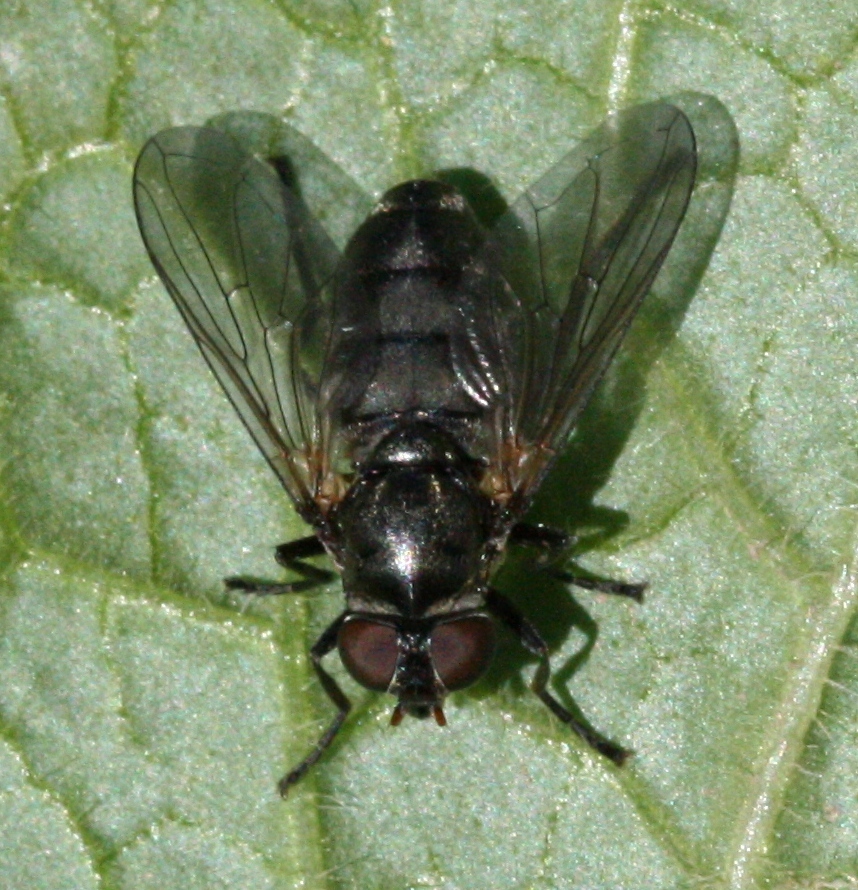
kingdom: Animalia
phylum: Arthropoda
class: Insecta
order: Diptera
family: Syrphidae
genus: Portevinia
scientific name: Portevinia maculata
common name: Ramson's hoverfly
